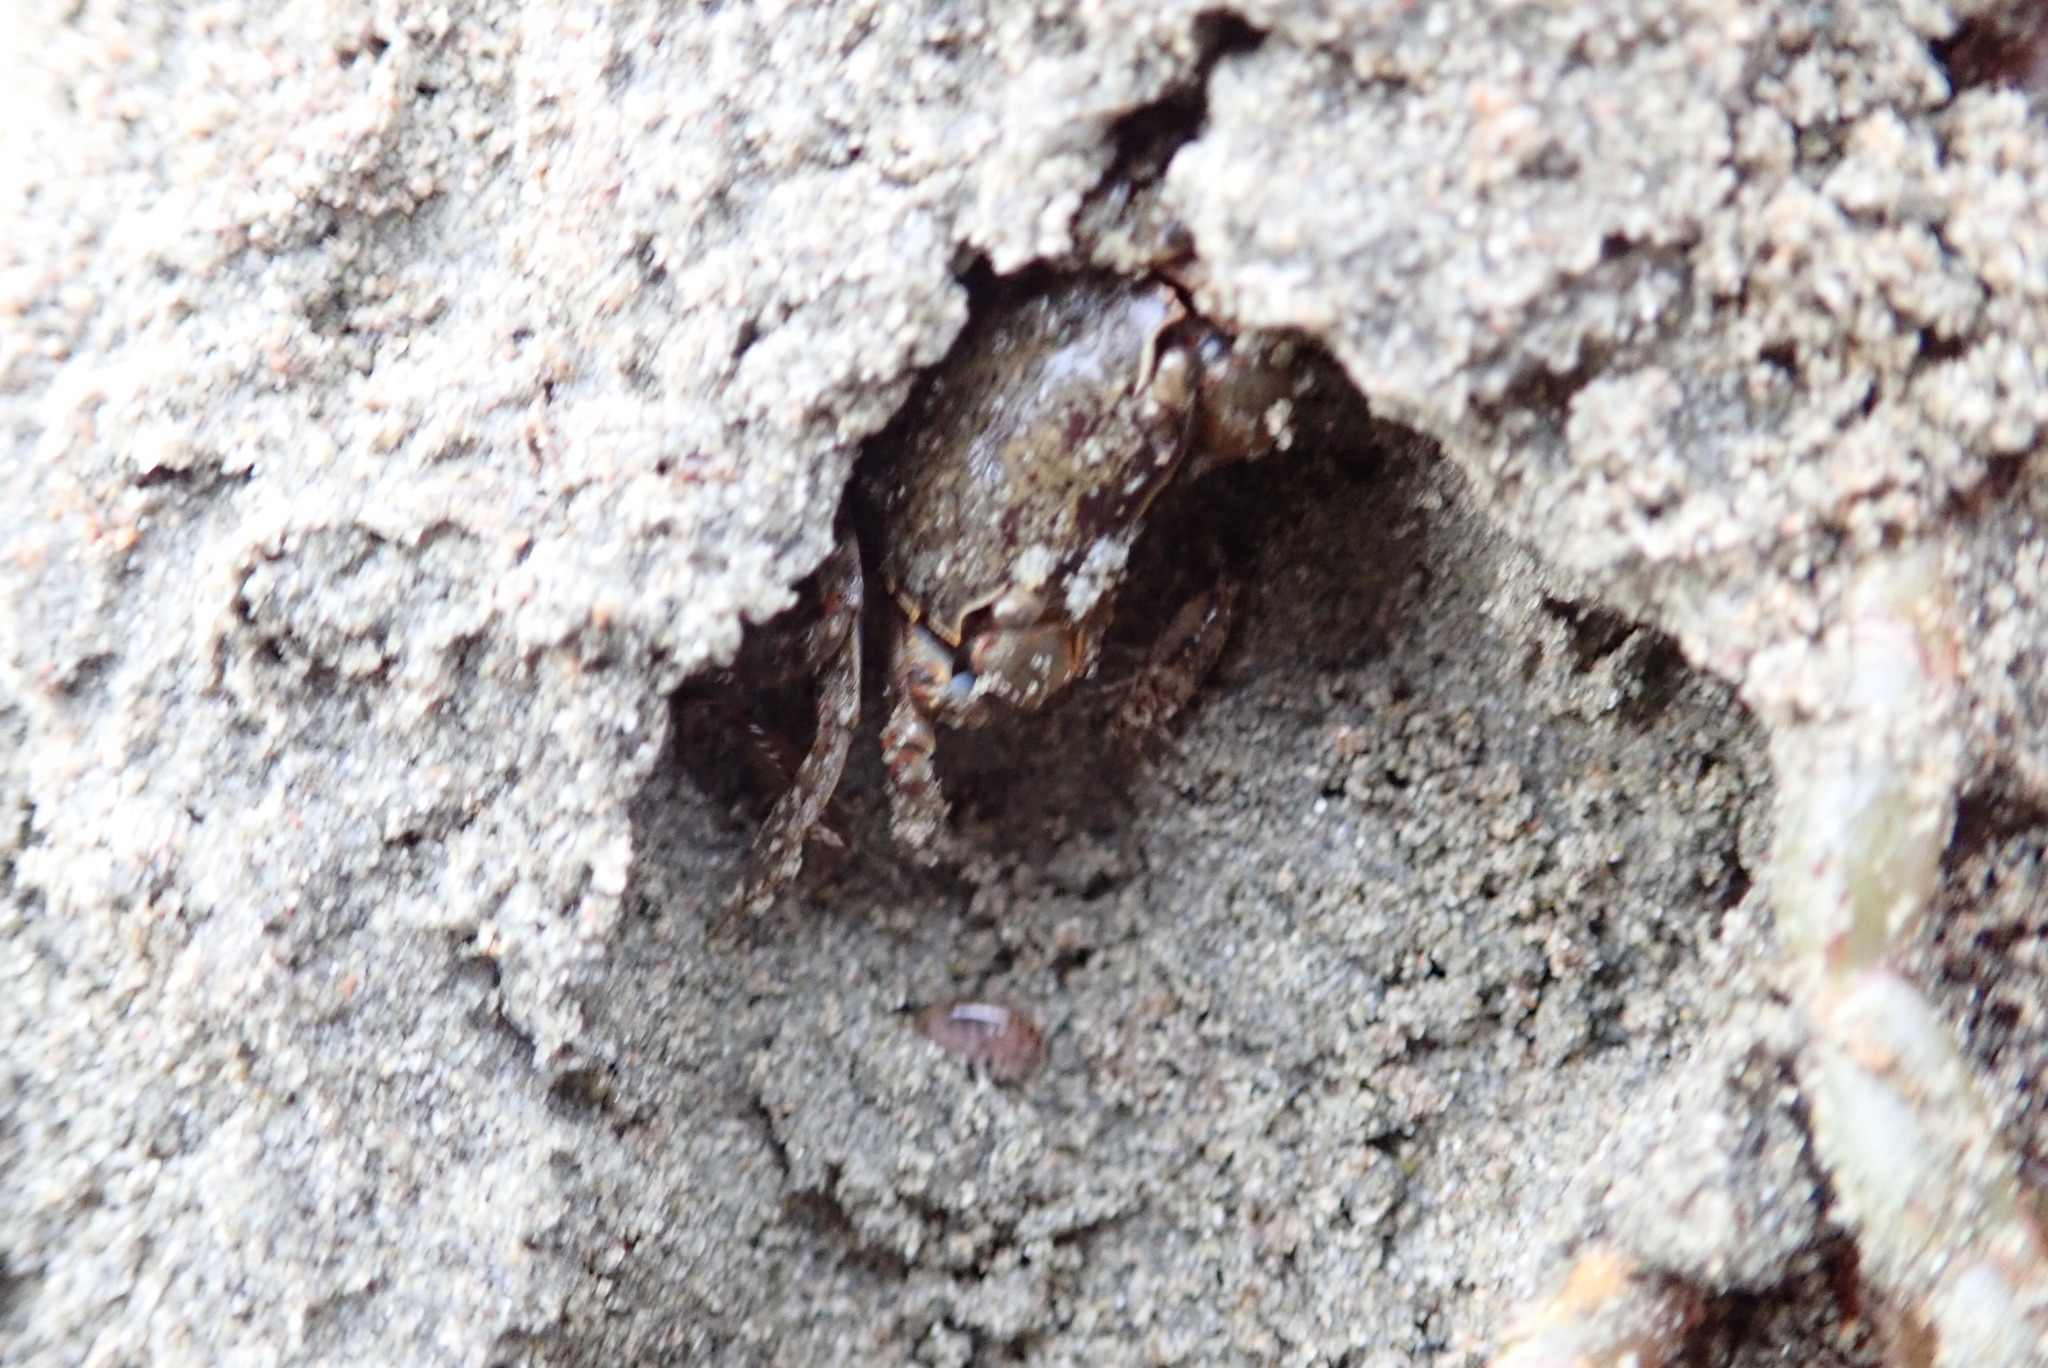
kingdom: Animalia
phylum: Arthropoda
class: Malacostraca
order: Decapoda
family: Varunidae
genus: Austrohelice
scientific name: Austrohelice crassa
